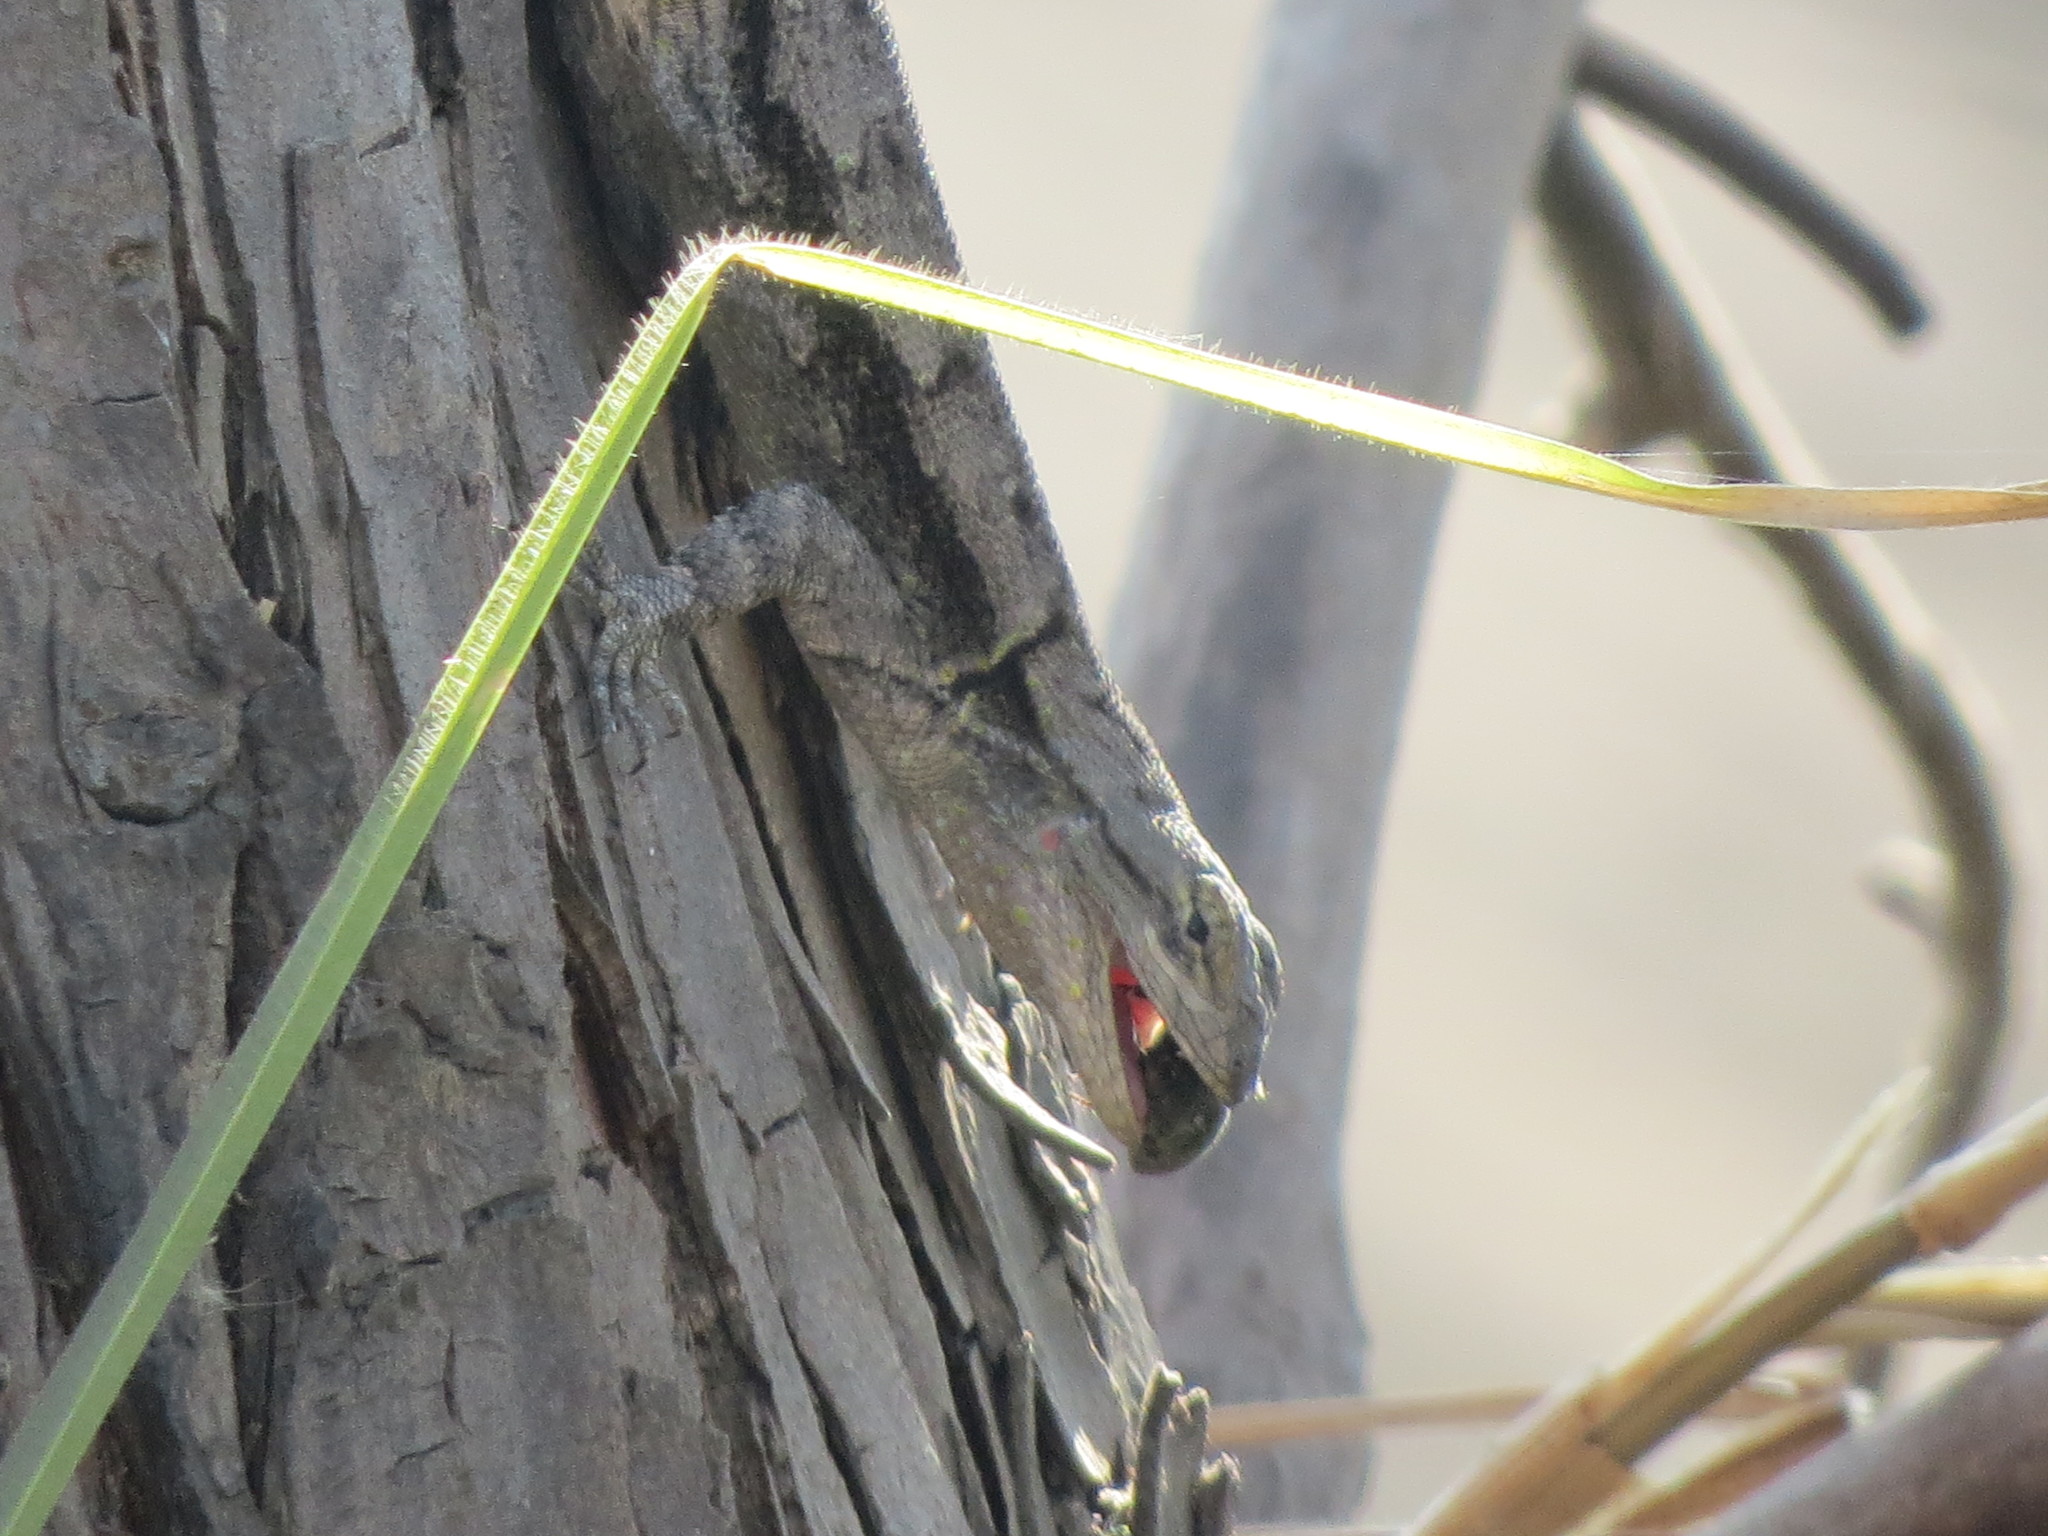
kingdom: Animalia
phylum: Chordata
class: Squamata
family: Phrynosomatidae
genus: Sceloporus
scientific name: Sceloporus grammicus
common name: Mesquite lizard
